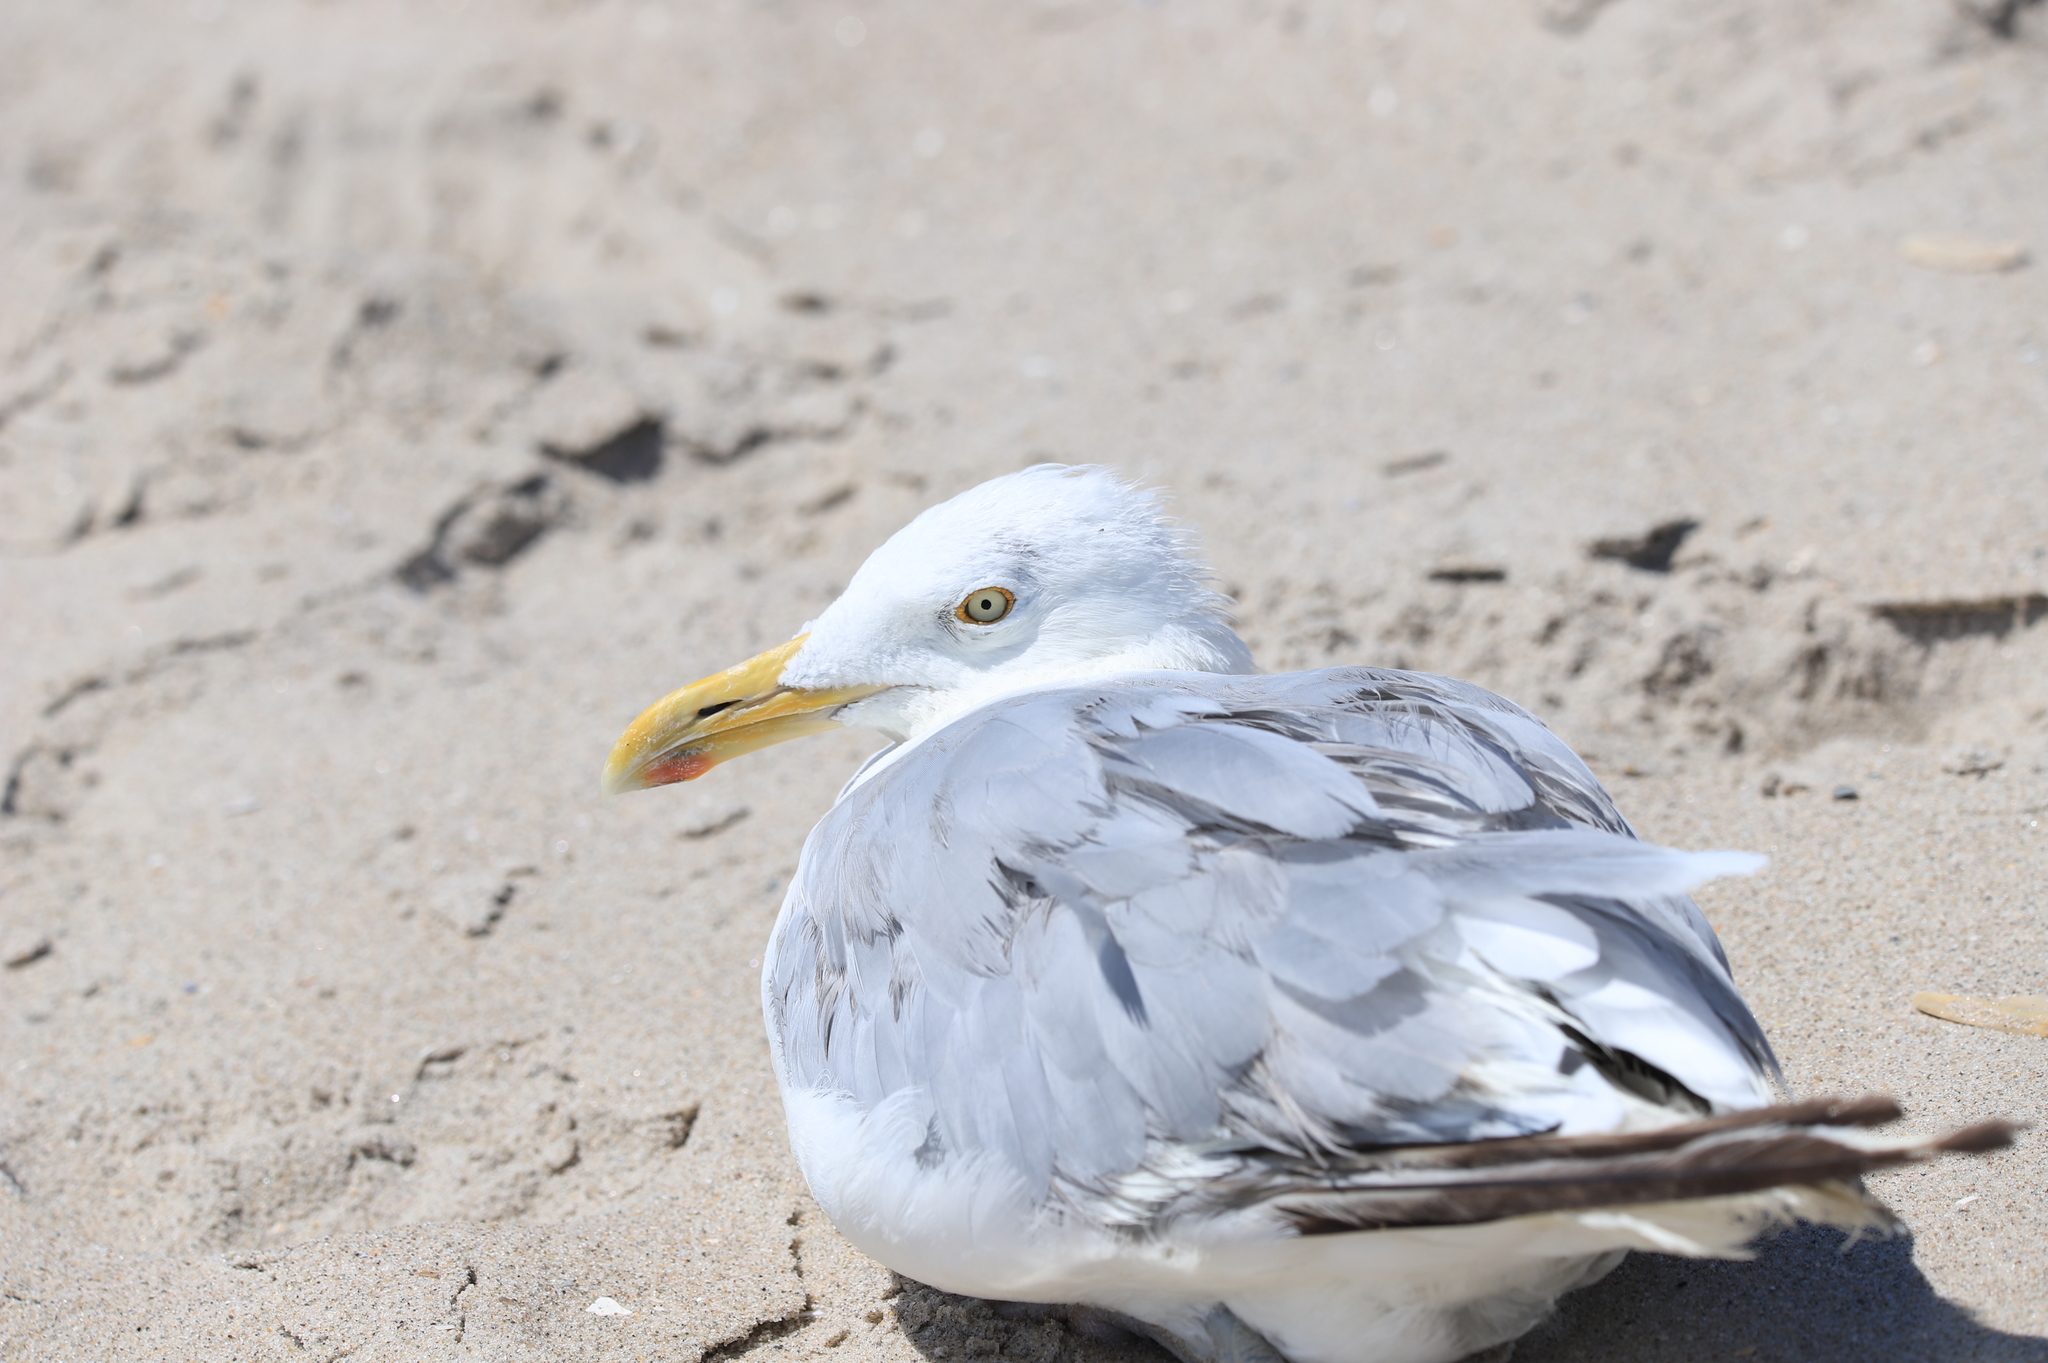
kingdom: Animalia
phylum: Chordata
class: Aves
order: Charadriiformes
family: Laridae
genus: Larus
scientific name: Larus argentatus
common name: Herring gull
